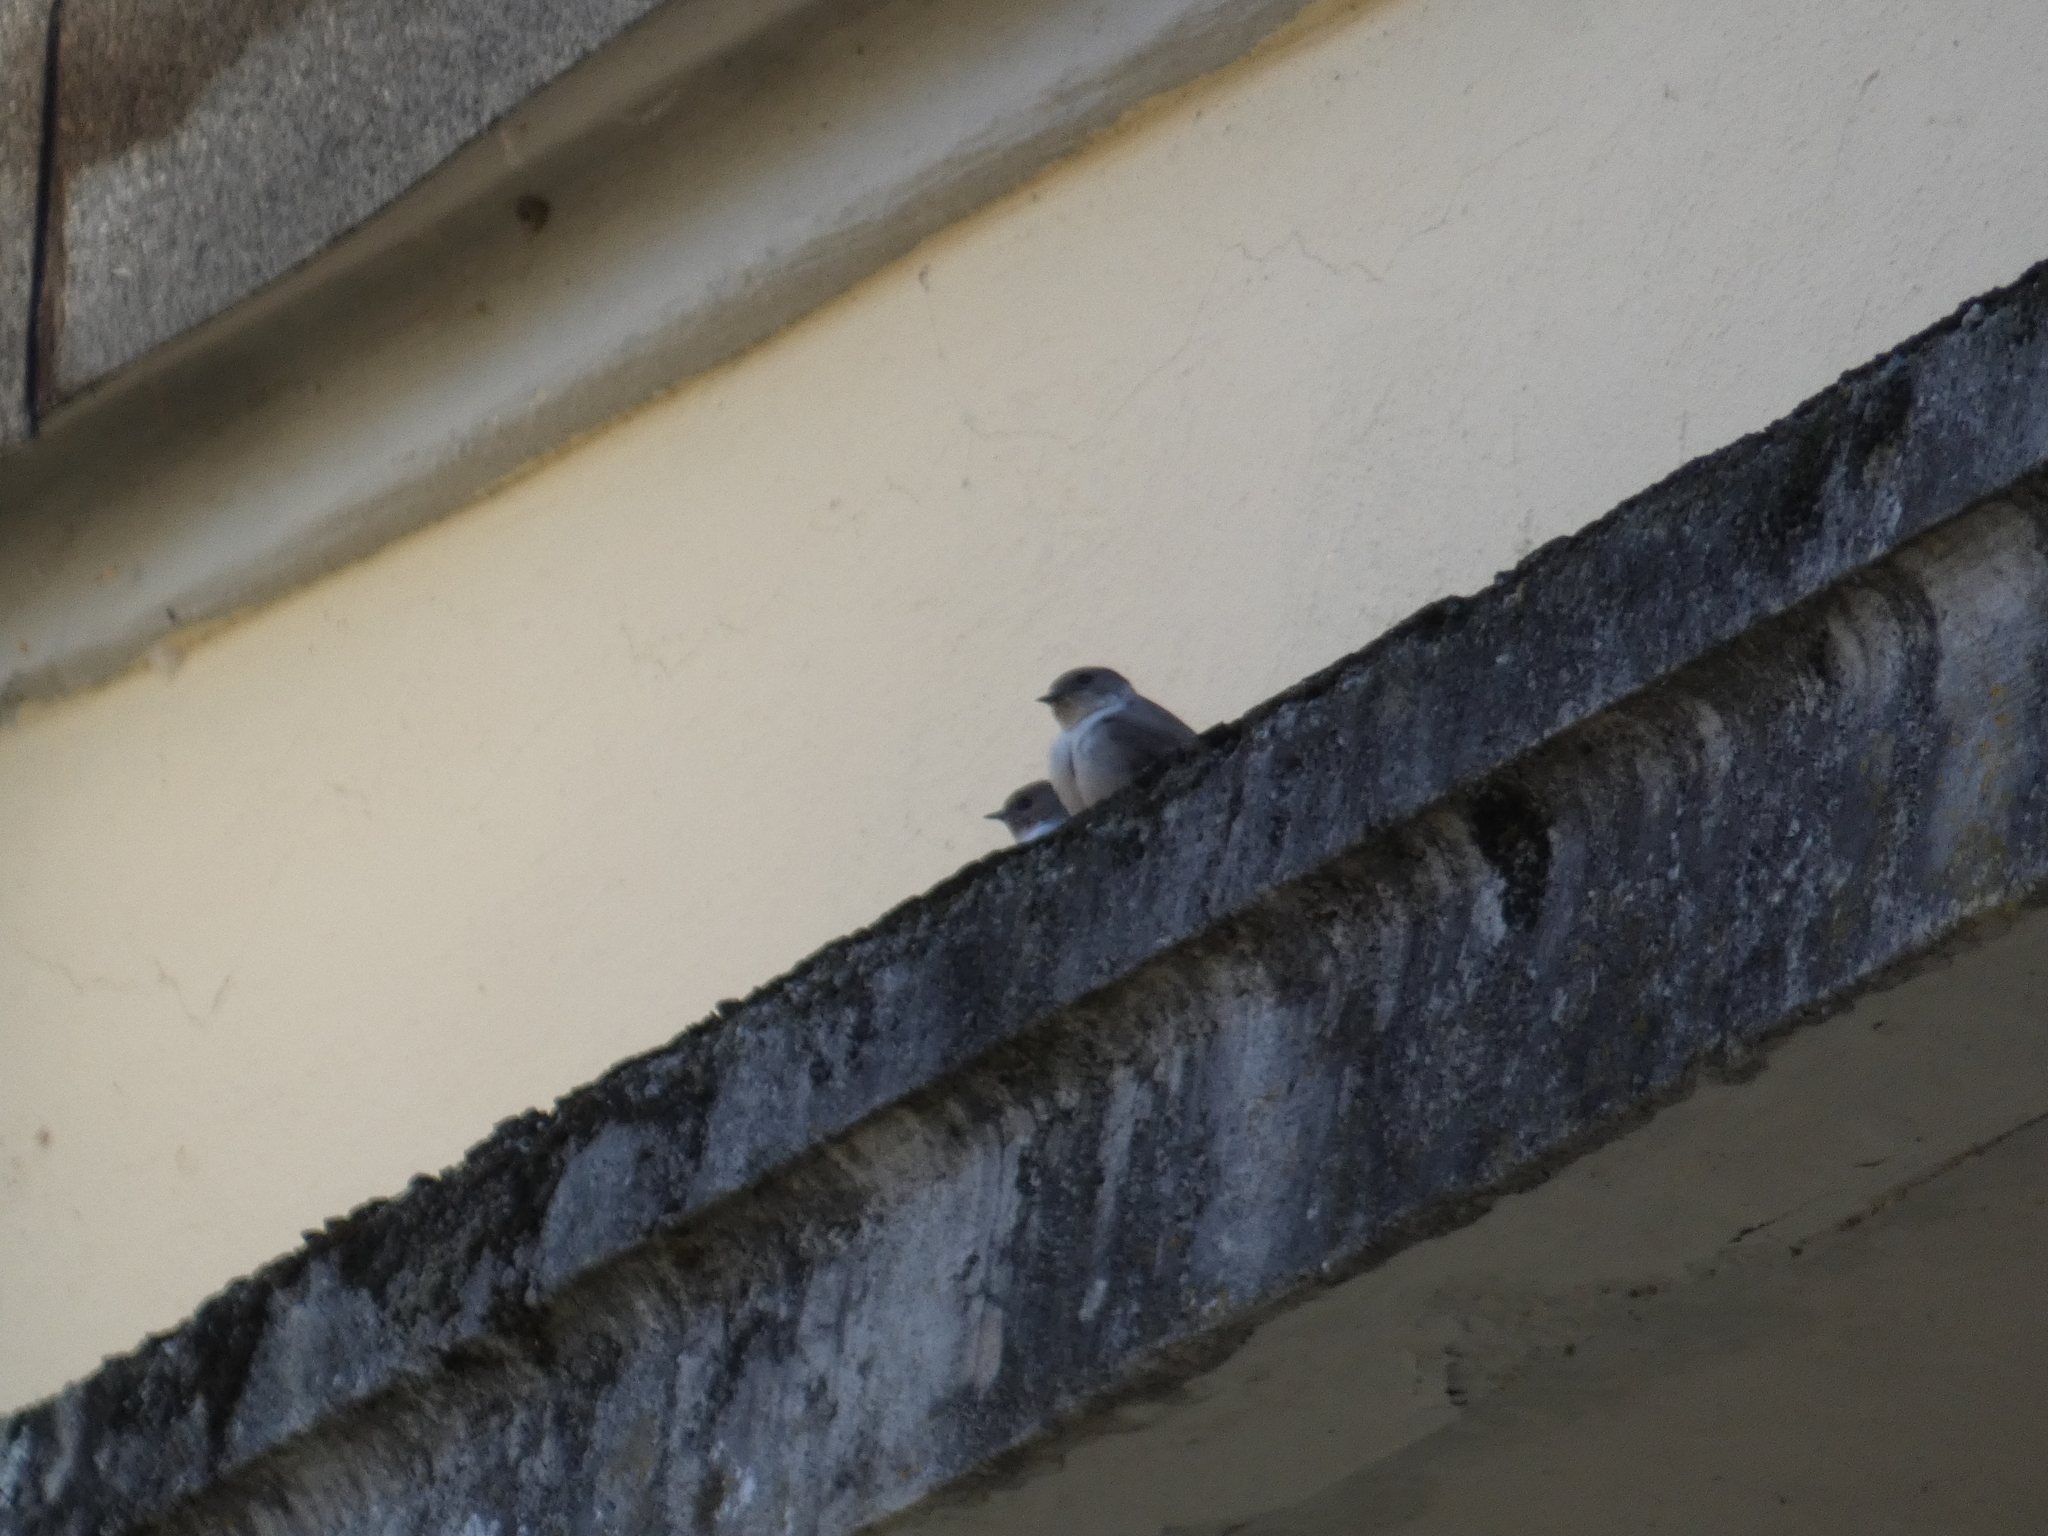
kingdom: Animalia
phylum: Chordata
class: Aves
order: Passeriformes
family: Hirundinidae
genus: Ptyonoprogne
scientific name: Ptyonoprogne rupestris
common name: Eurasian crag martin
